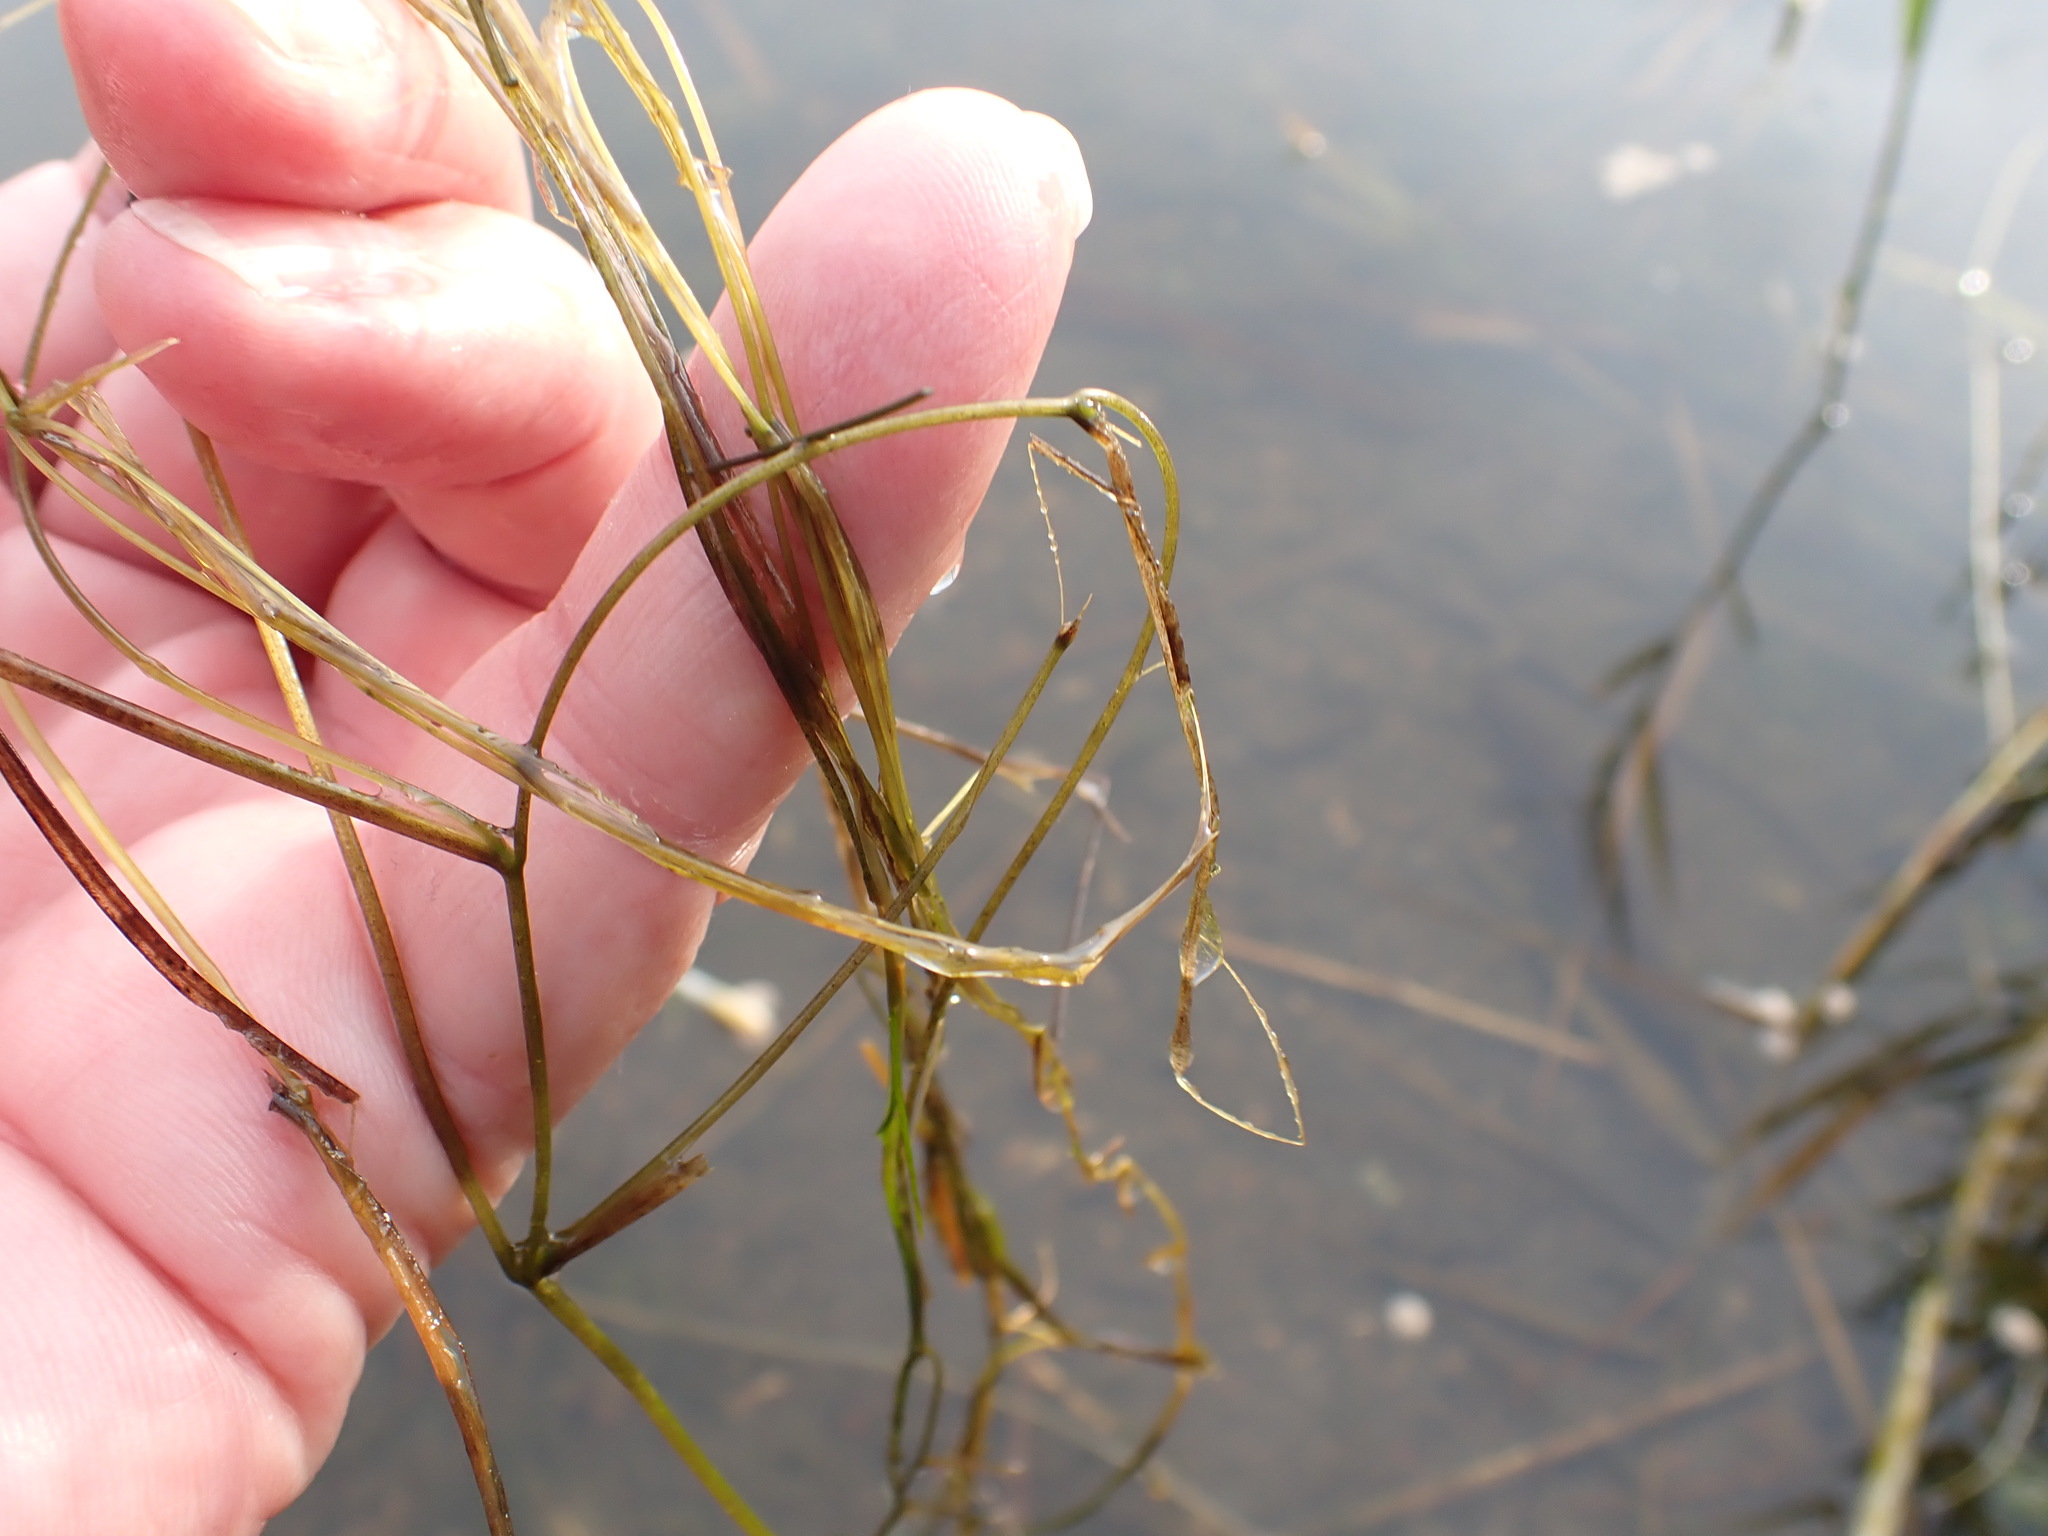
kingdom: Plantae
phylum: Tracheophyta
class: Liliopsida
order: Alismatales
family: Potamogetonaceae
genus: Stuckenia
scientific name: Stuckenia pectinata
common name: Sago pondweed
